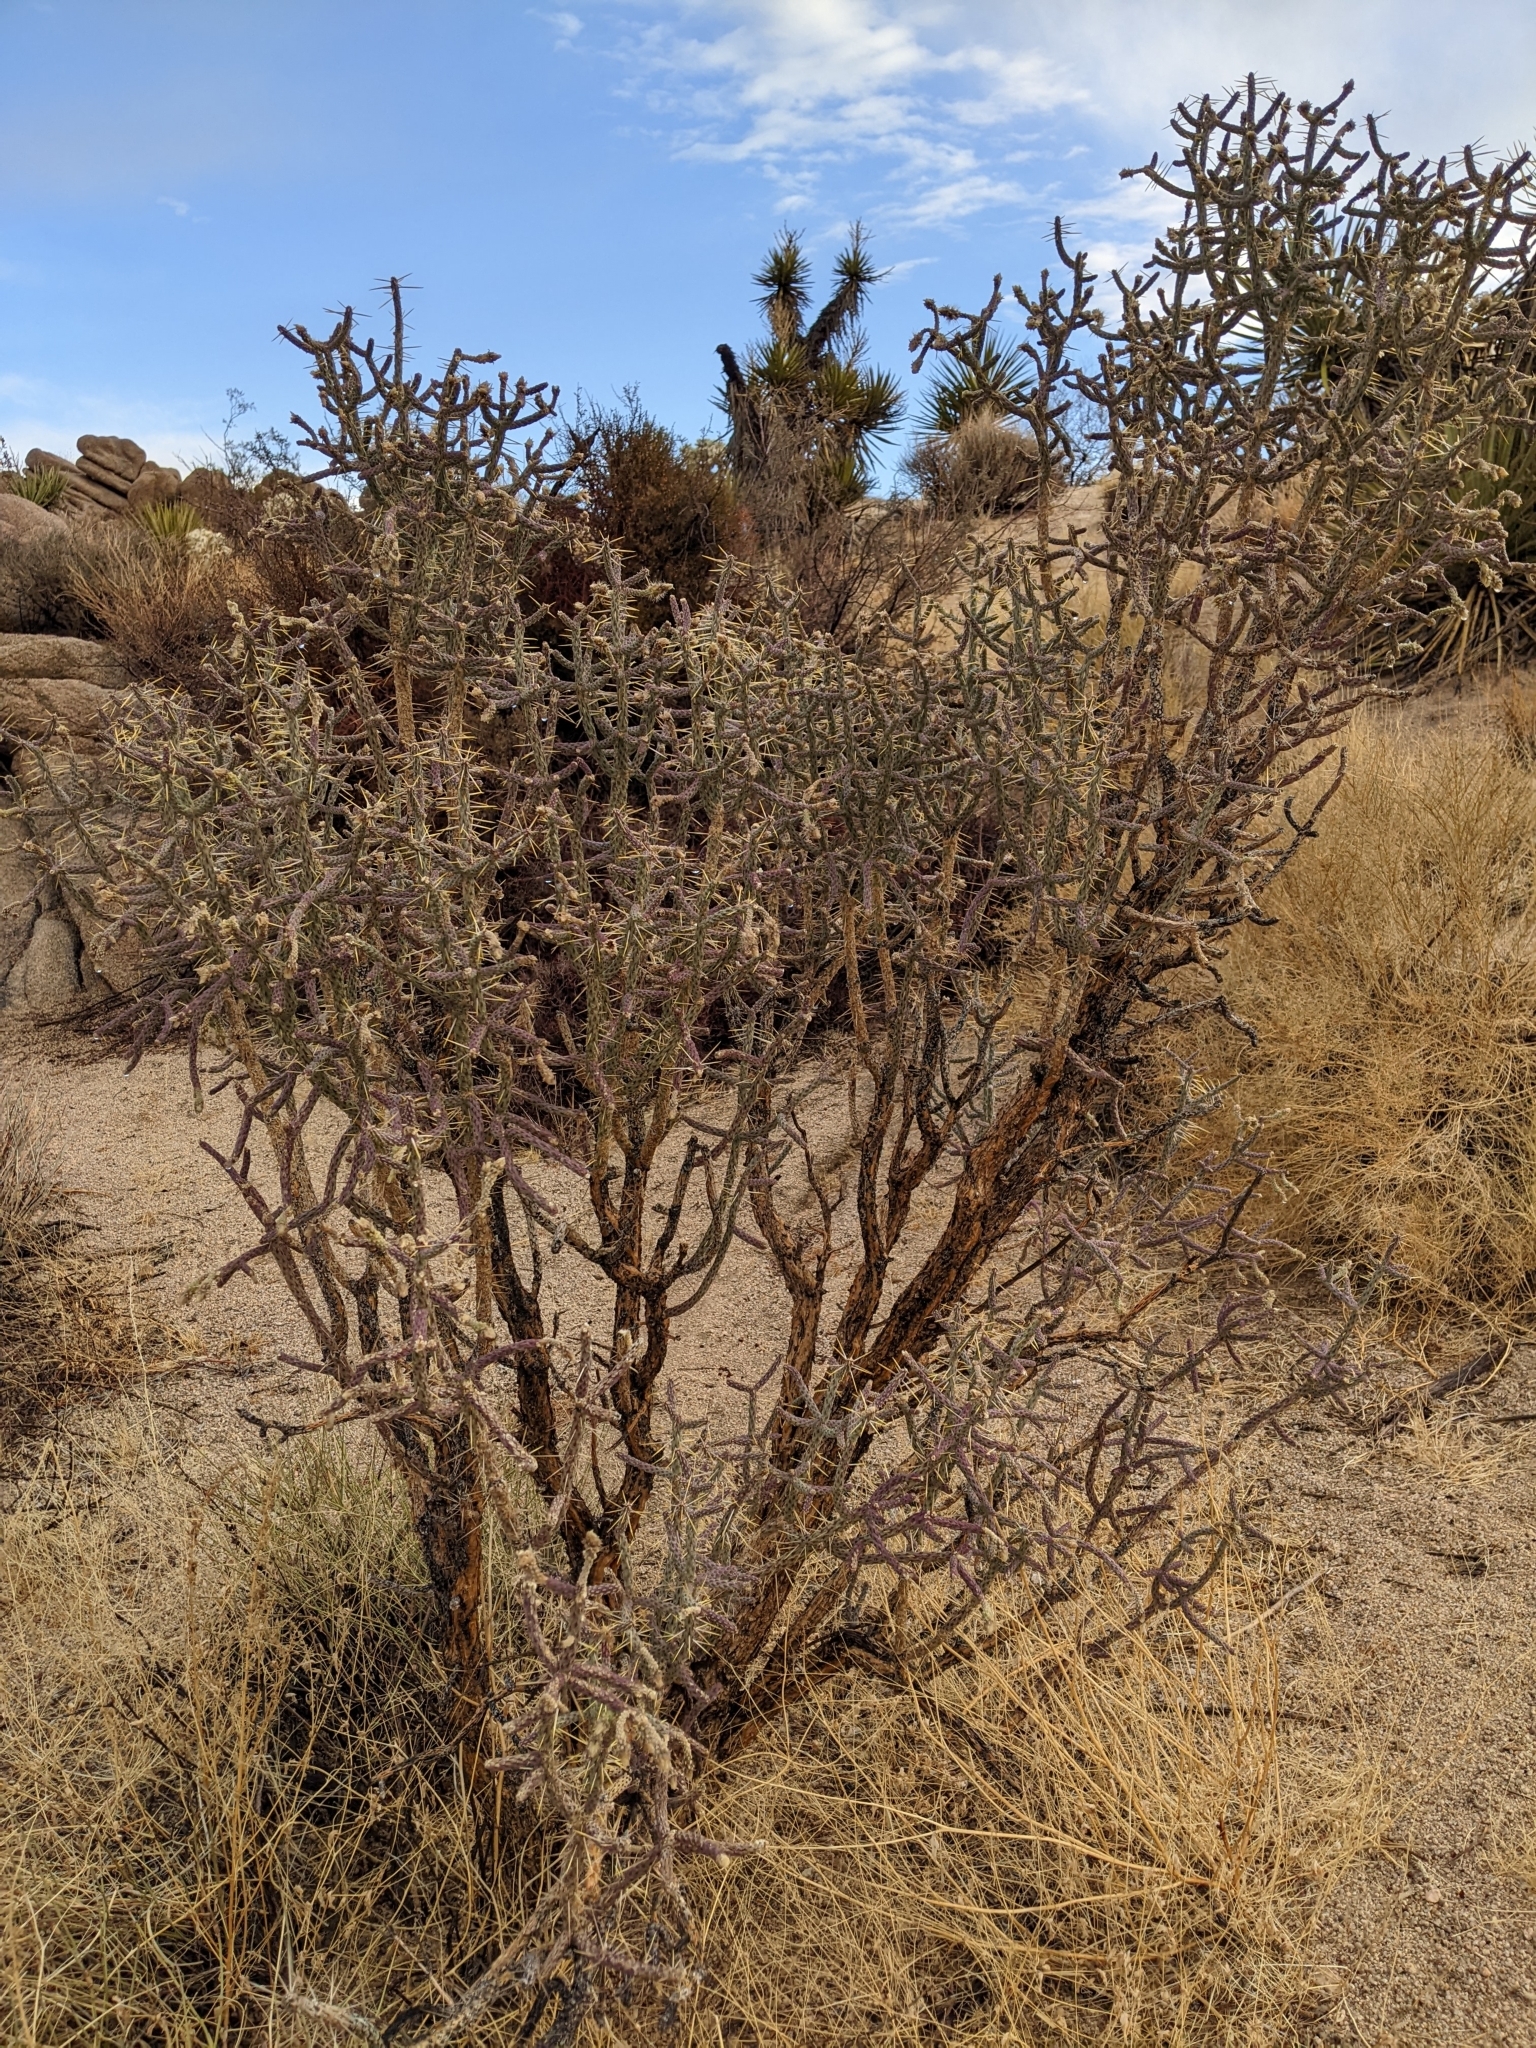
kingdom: Plantae
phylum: Tracheophyta
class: Magnoliopsida
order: Caryophyllales
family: Cactaceae
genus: Cylindropuntia
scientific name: Cylindropuntia ramosissima
